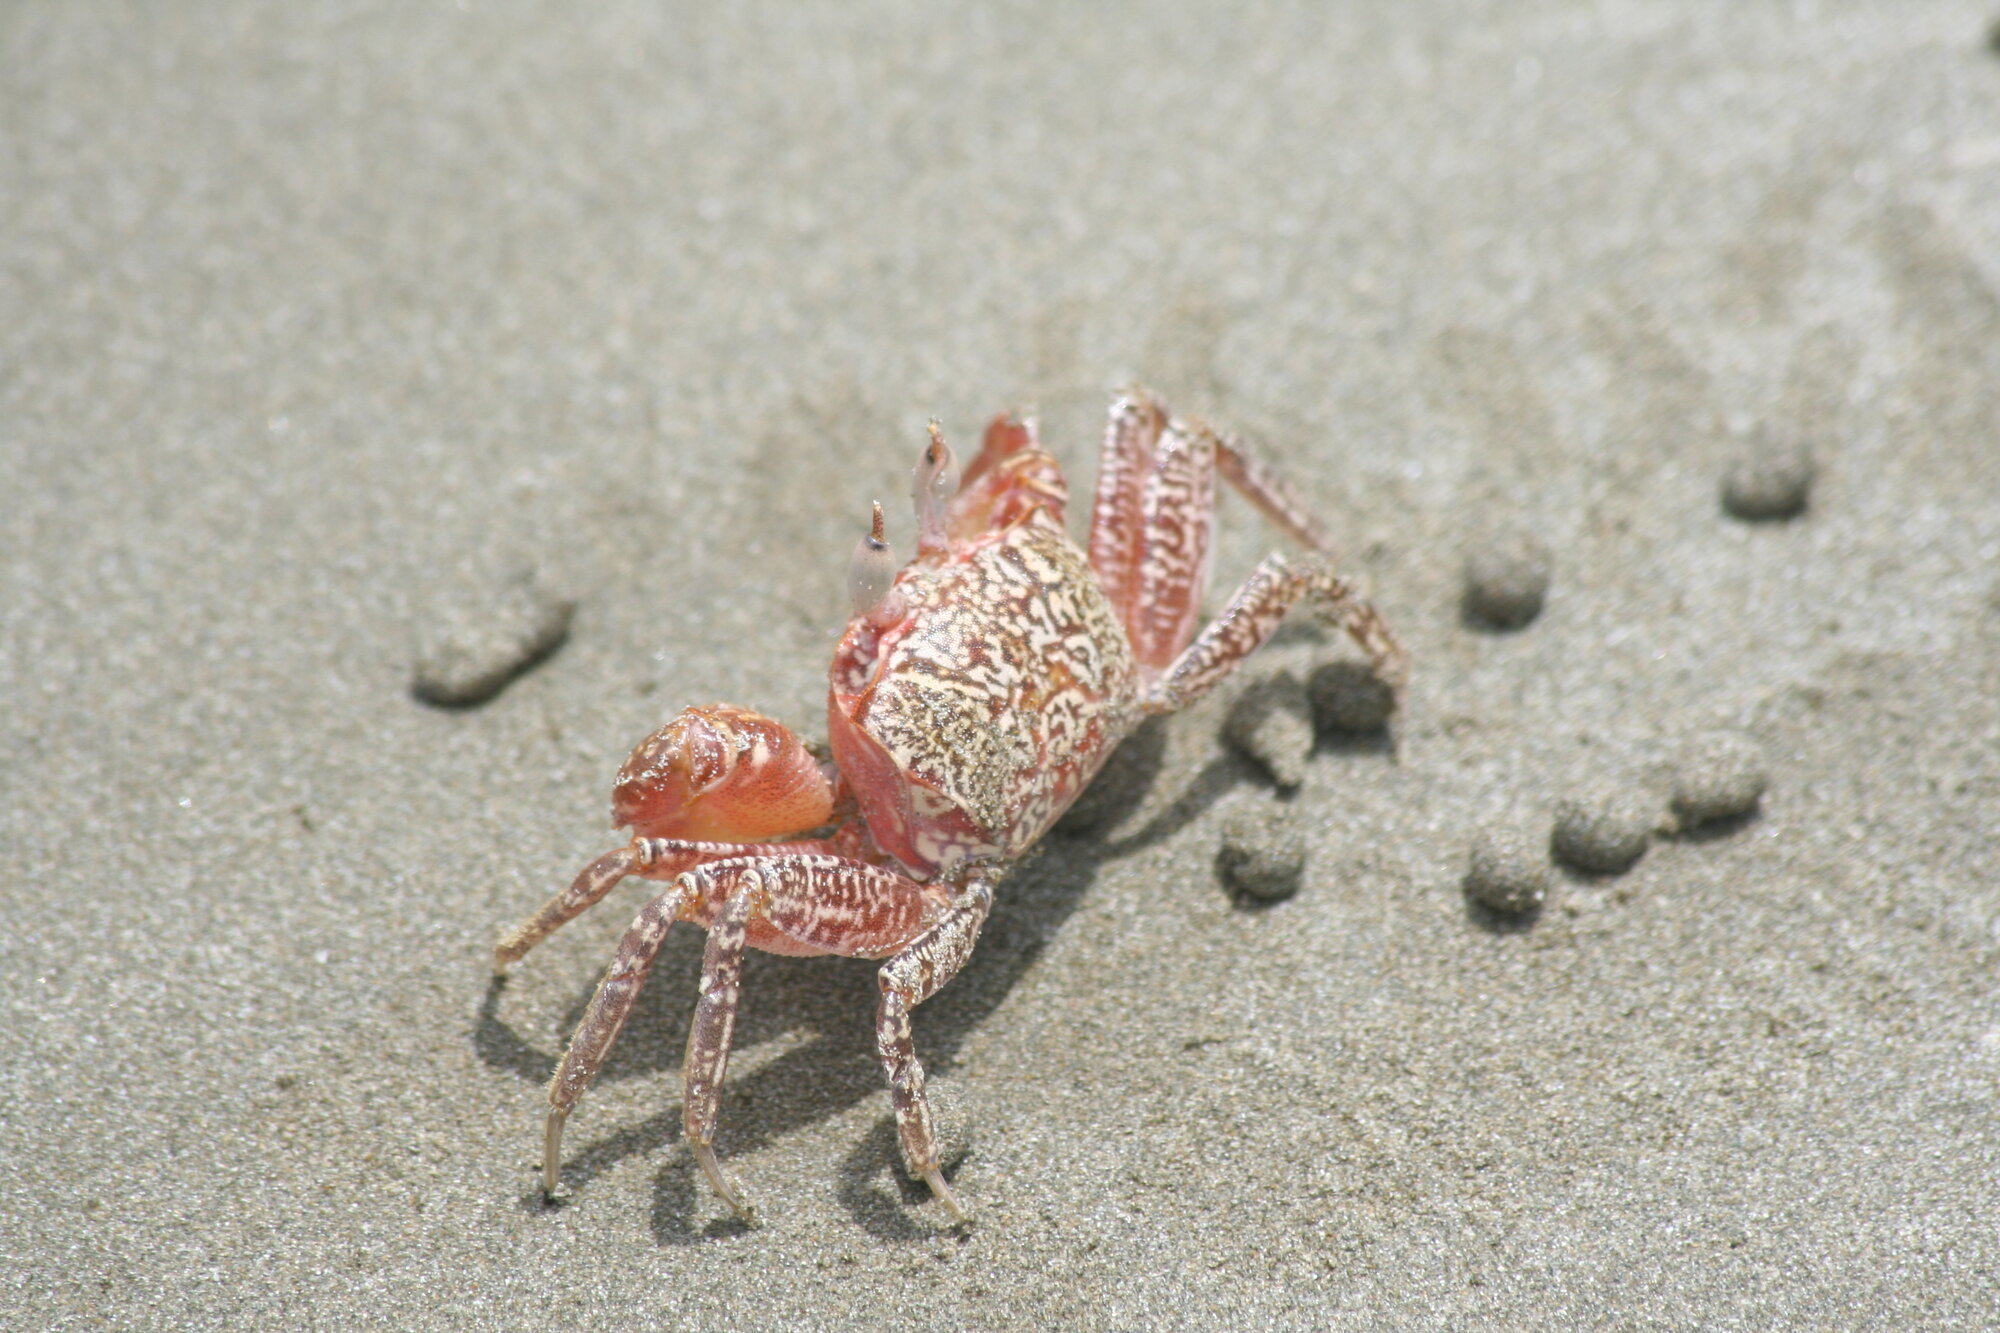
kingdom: Animalia
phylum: Arthropoda
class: Malacostraca
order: Decapoda
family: Ocypodidae
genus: Ocypode
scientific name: Ocypode gaudichaudii
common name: Pacific ghost crab
